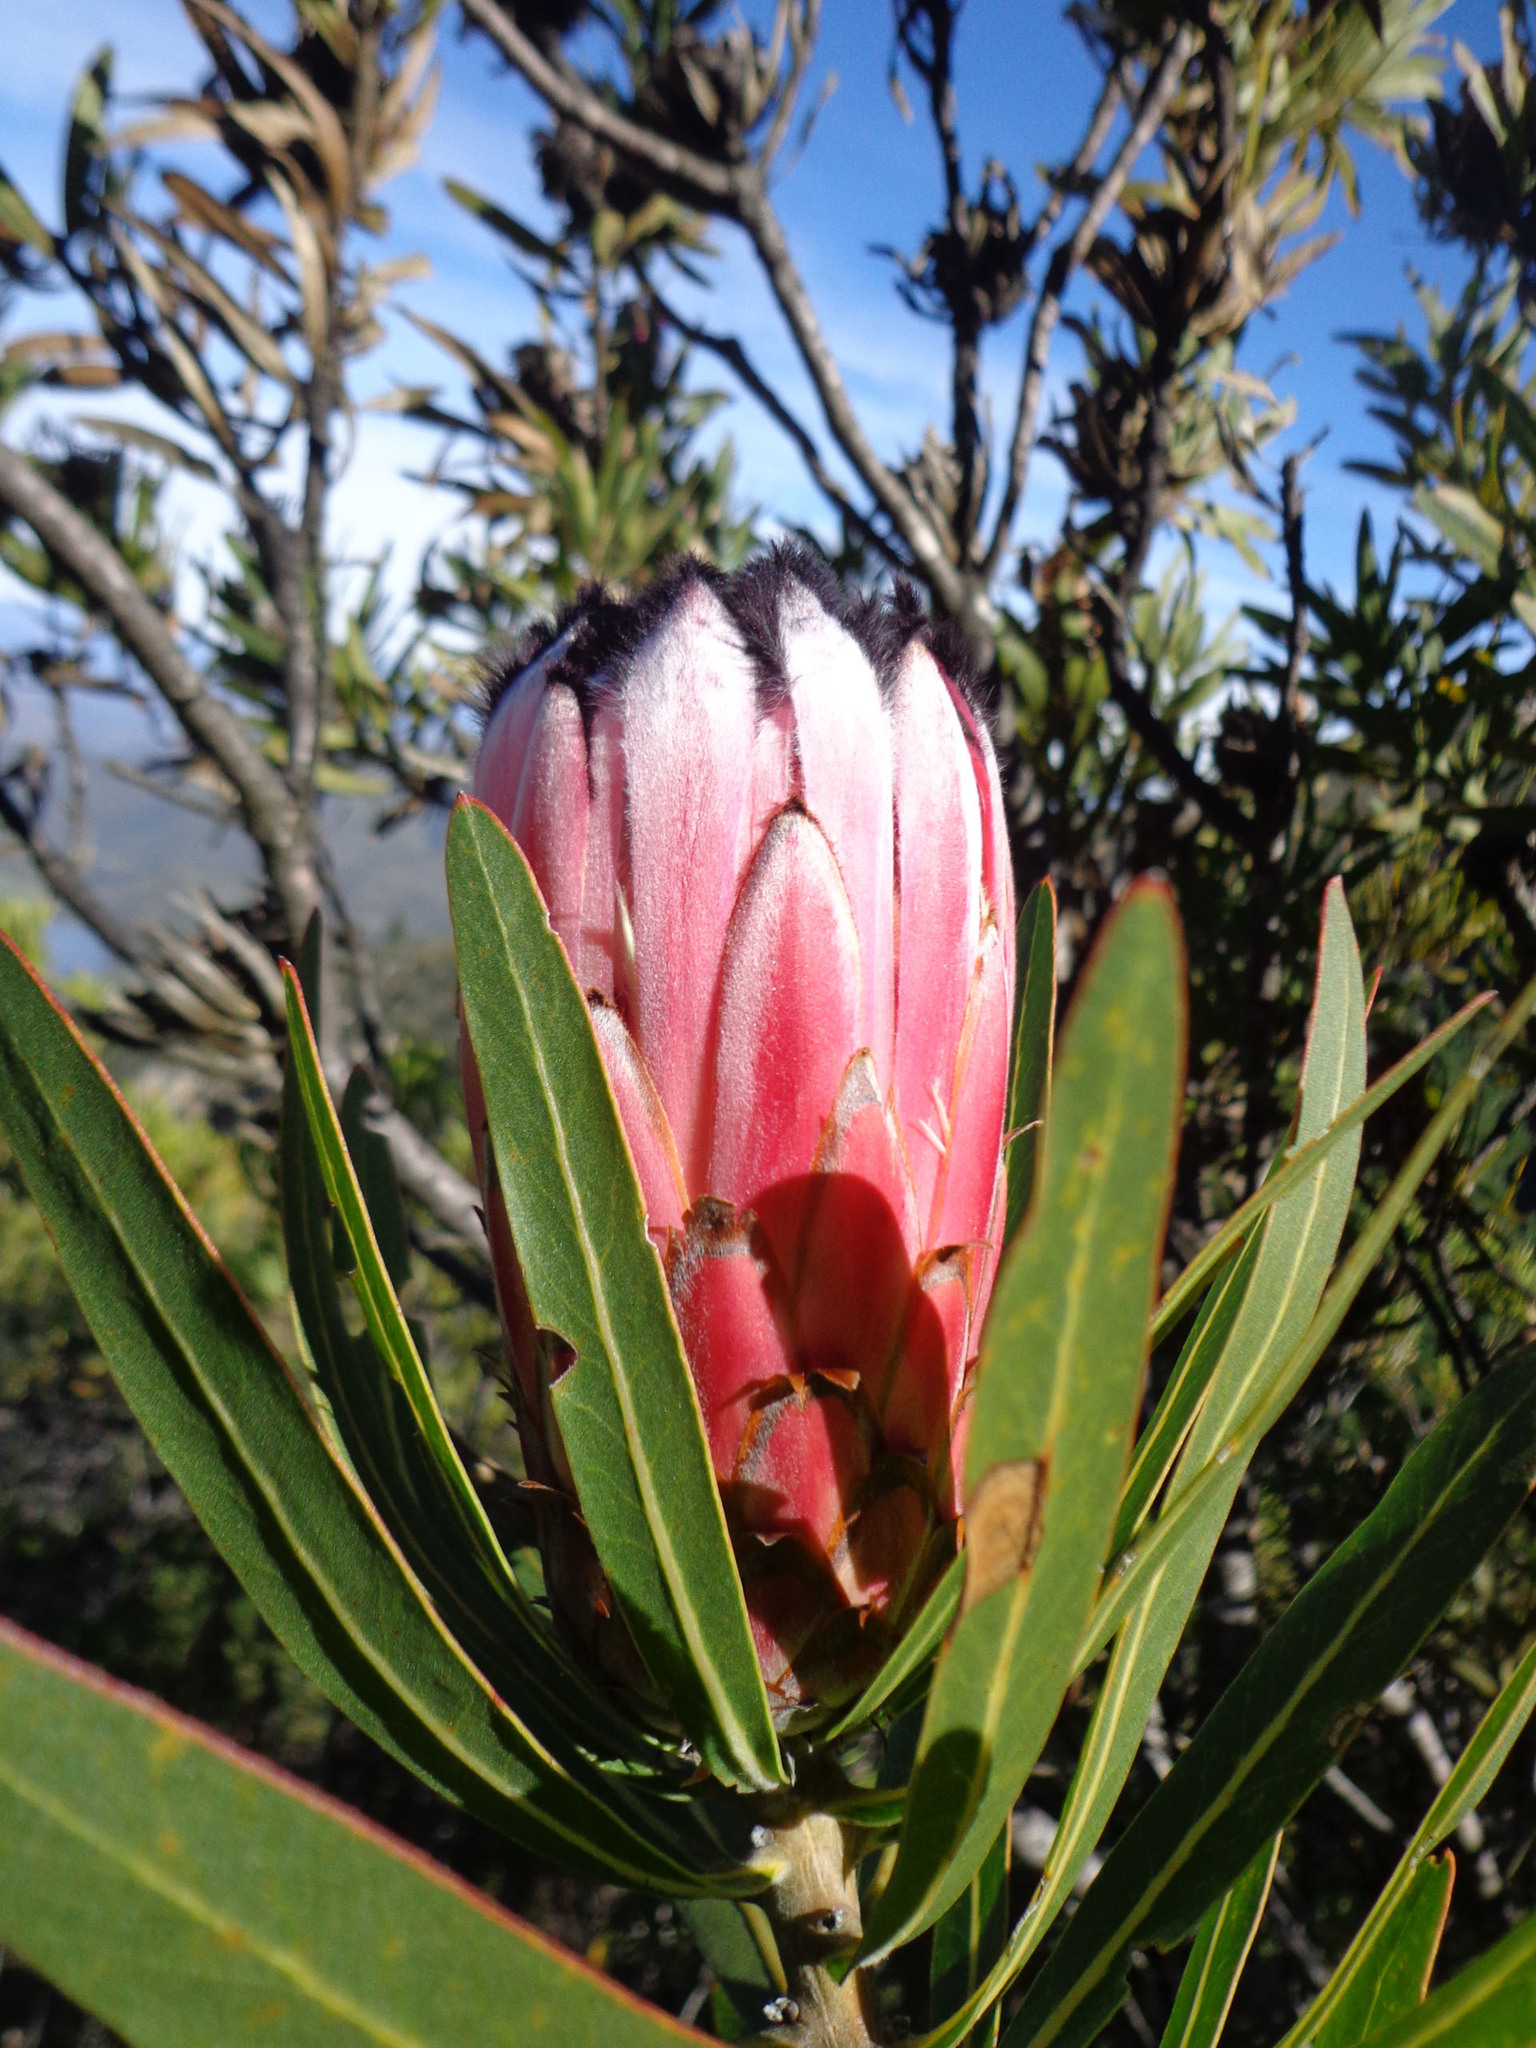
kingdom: Plantae
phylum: Tracheophyta
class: Magnoliopsida
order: Proteales
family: Proteaceae
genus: Protea
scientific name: Protea neriifolia
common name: Blue sugarbush
